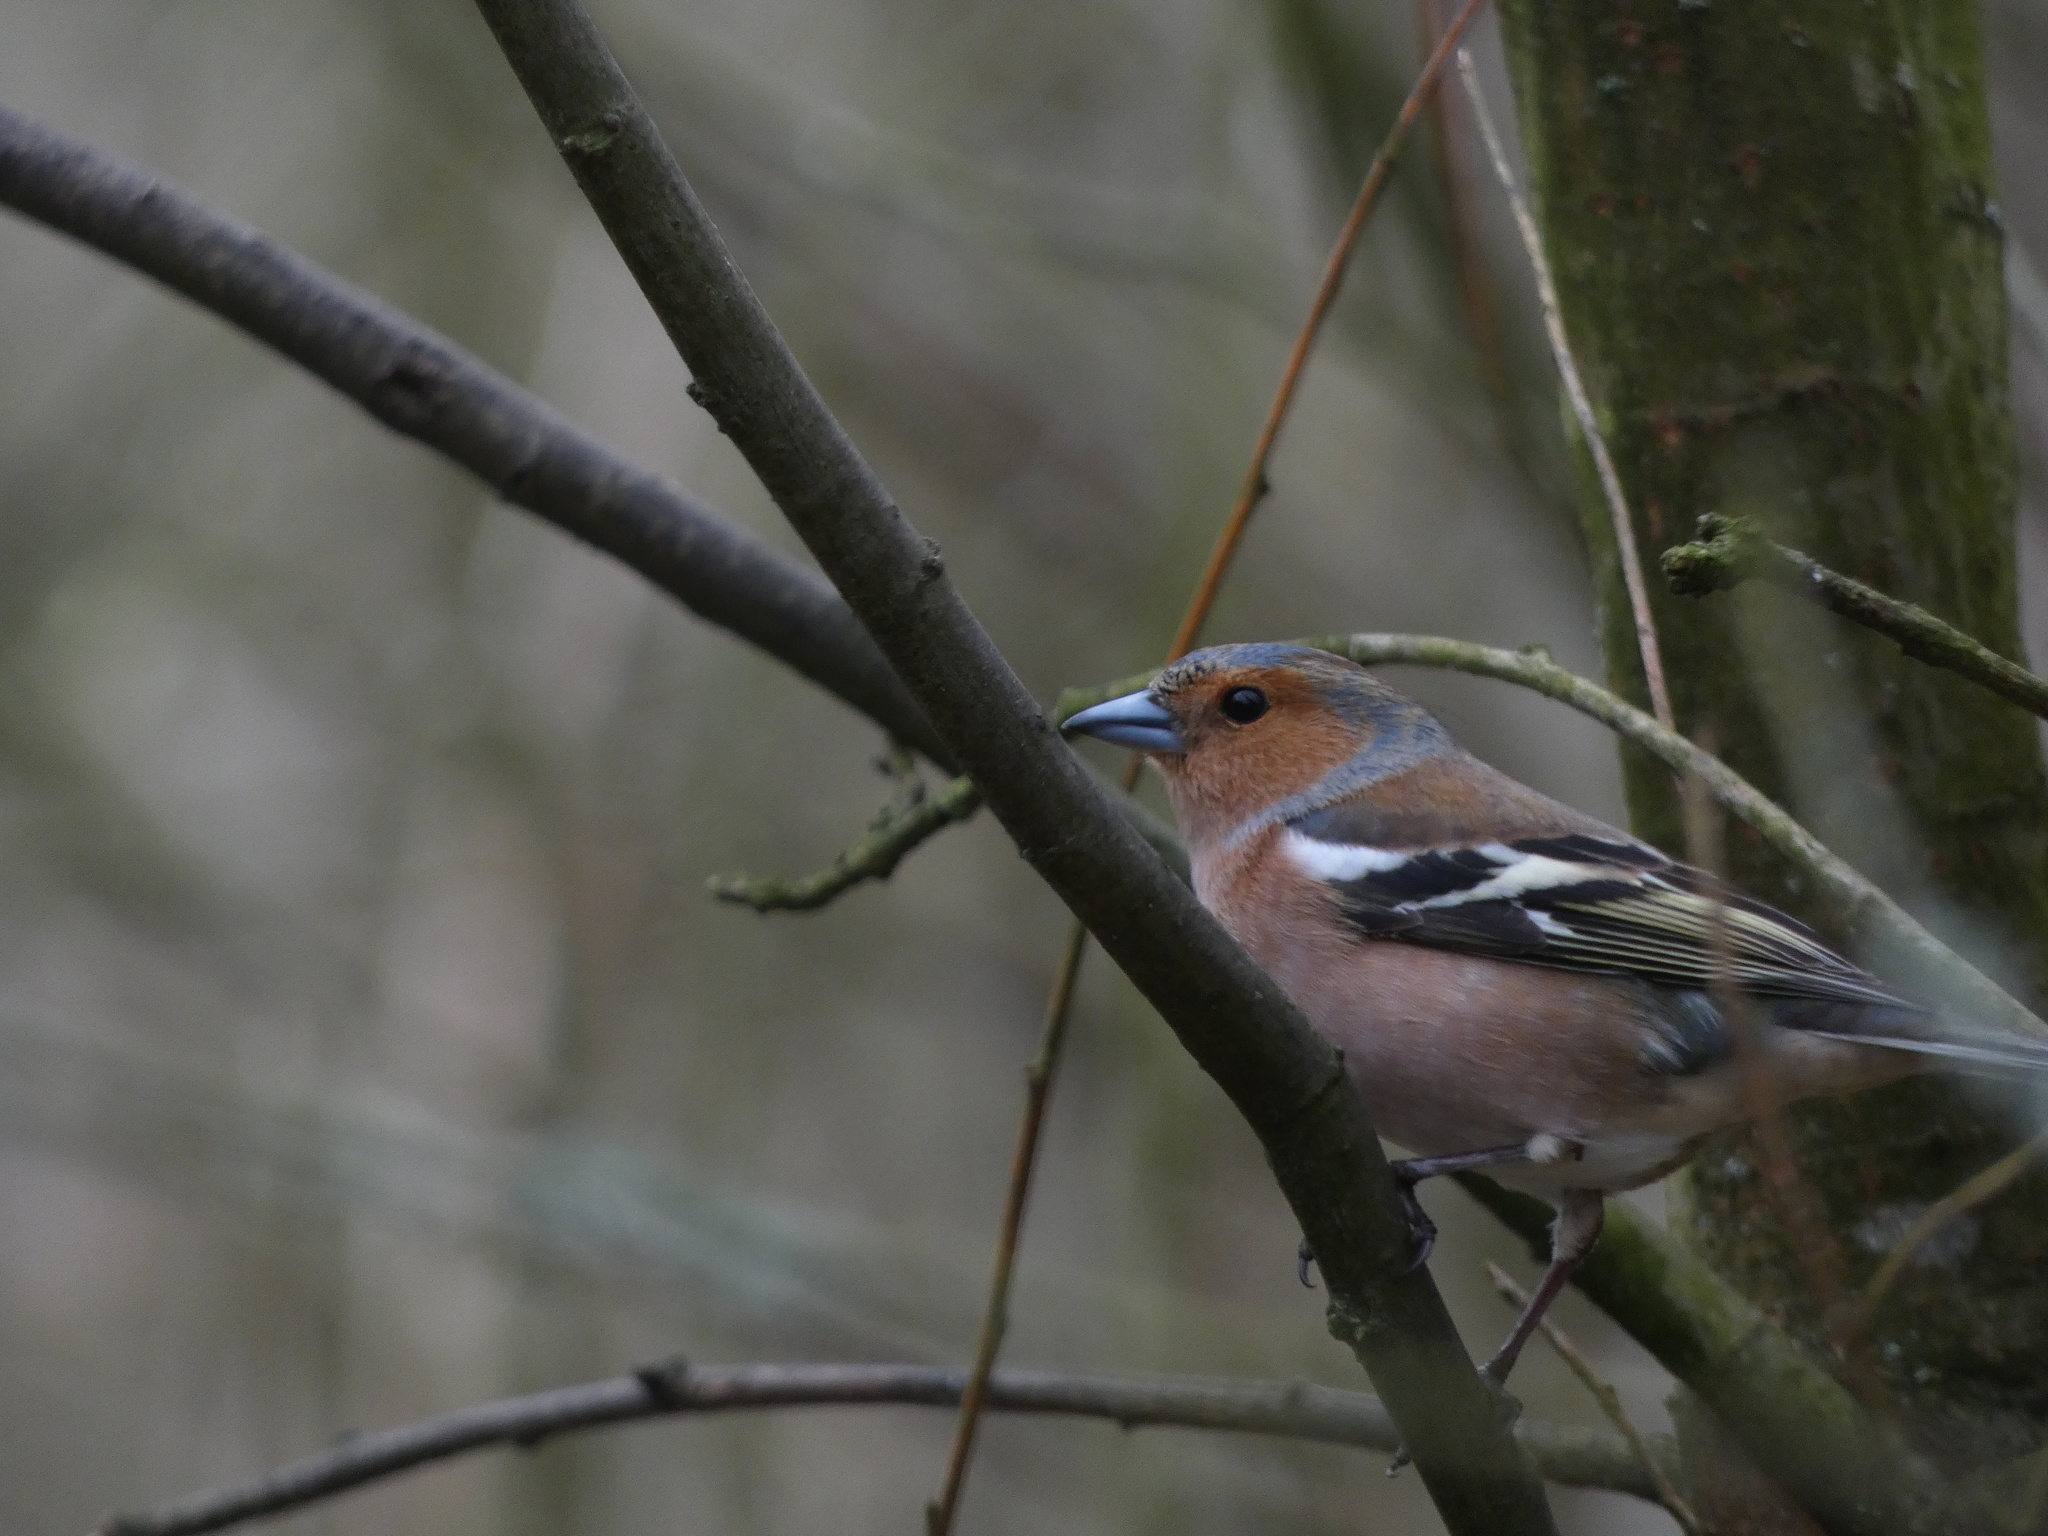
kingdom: Animalia
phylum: Chordata
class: Aves
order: Passeriformes
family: Fringillidae
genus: Fringilla
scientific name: Fringilla coelebs
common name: Common chaffinch
